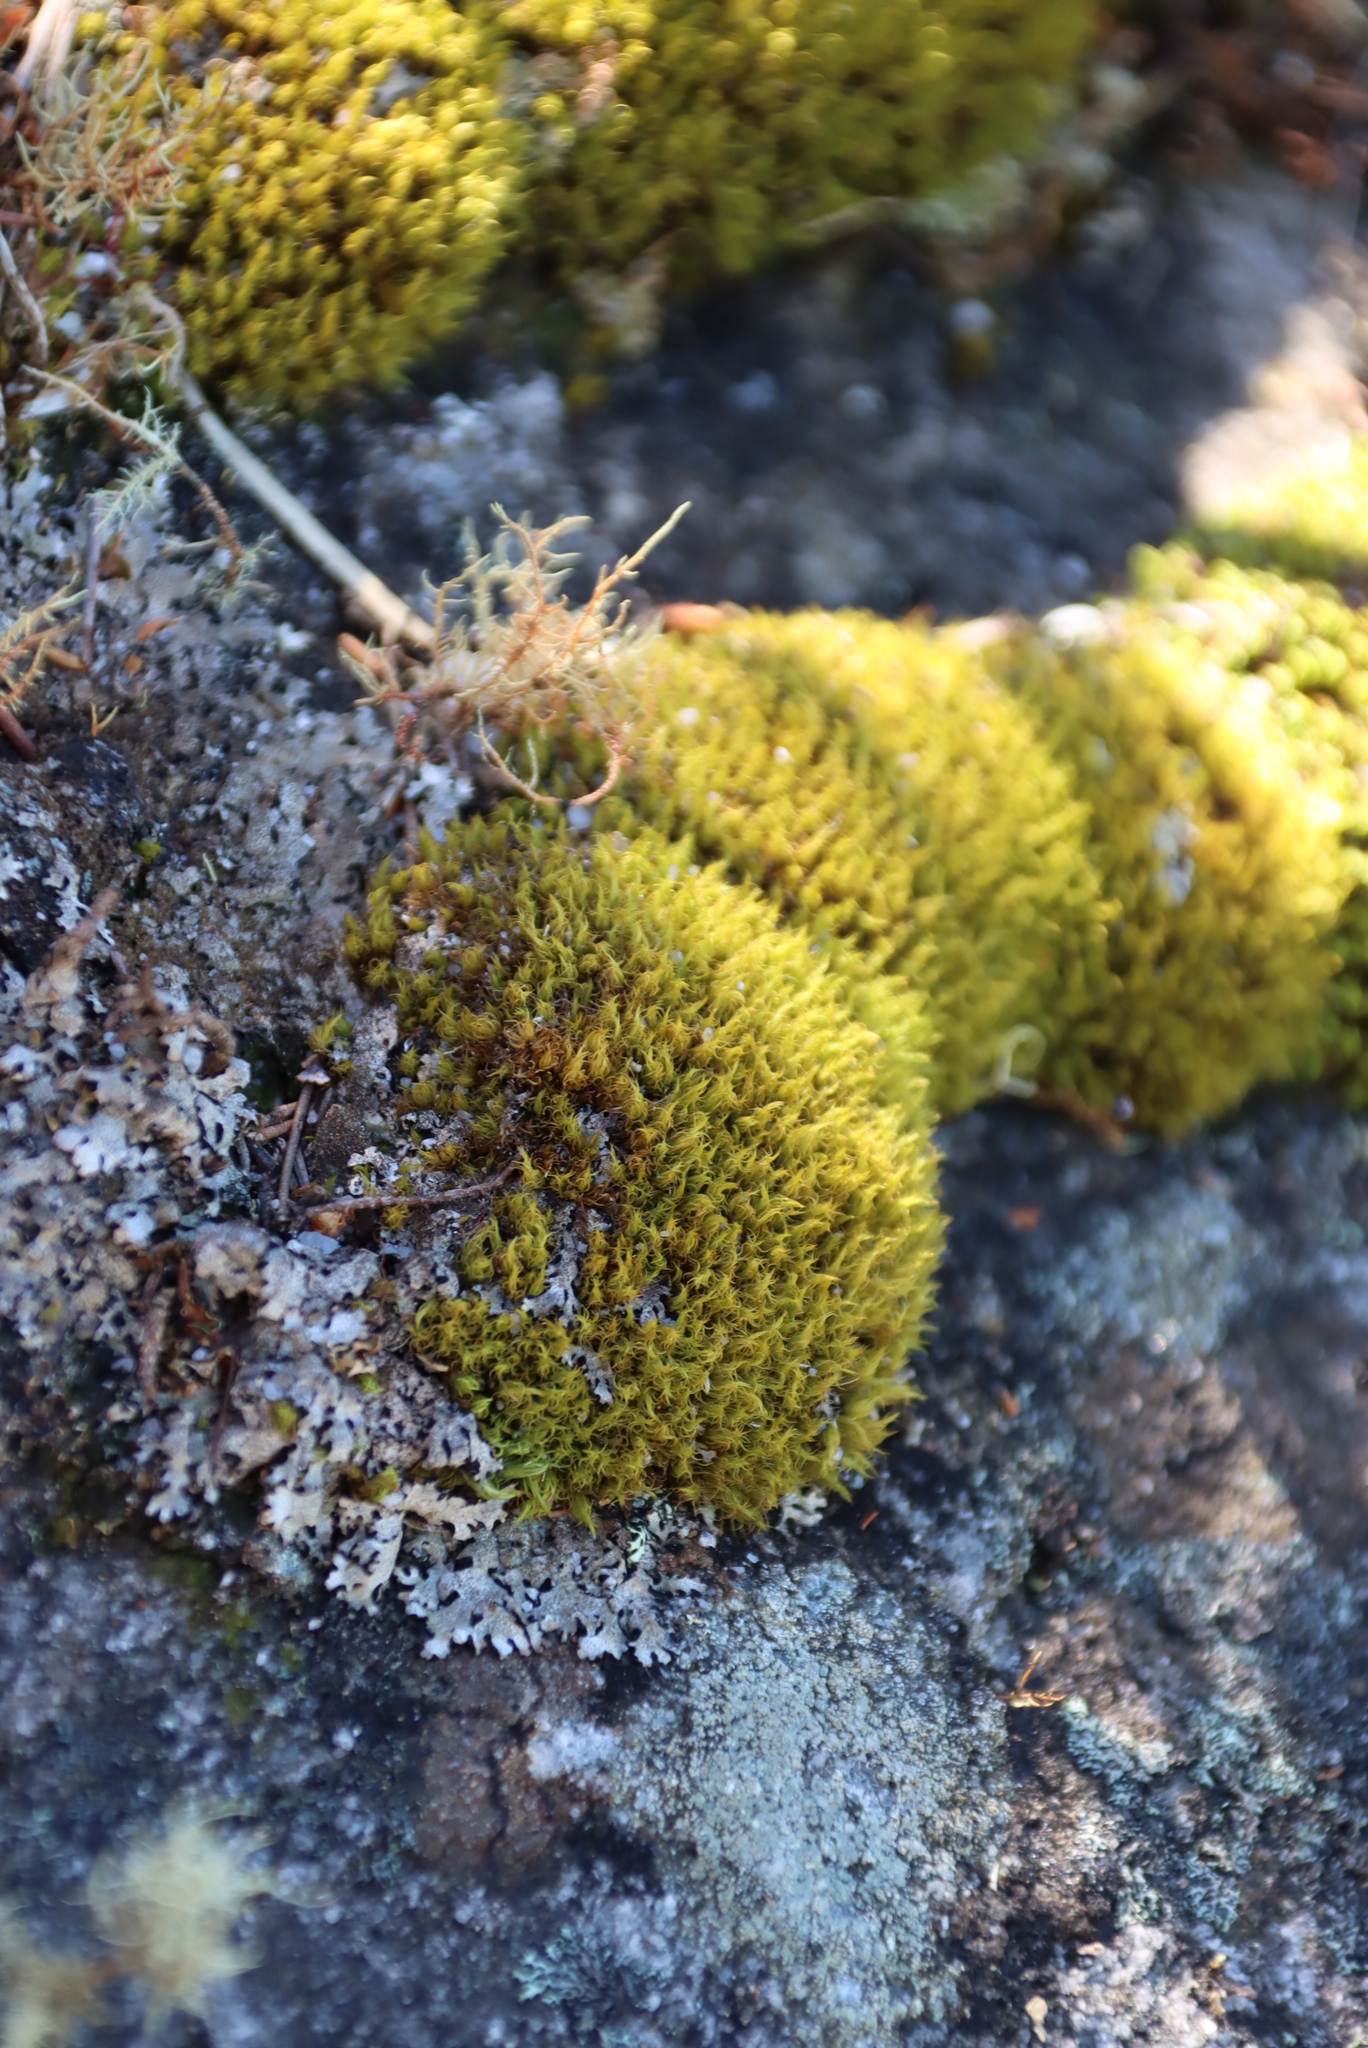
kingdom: Plantae
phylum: Bryophyta
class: Bryopsida
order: Dicranales
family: Hypodontiaceae
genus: Hypodontium
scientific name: Hypodontium pomiforme
